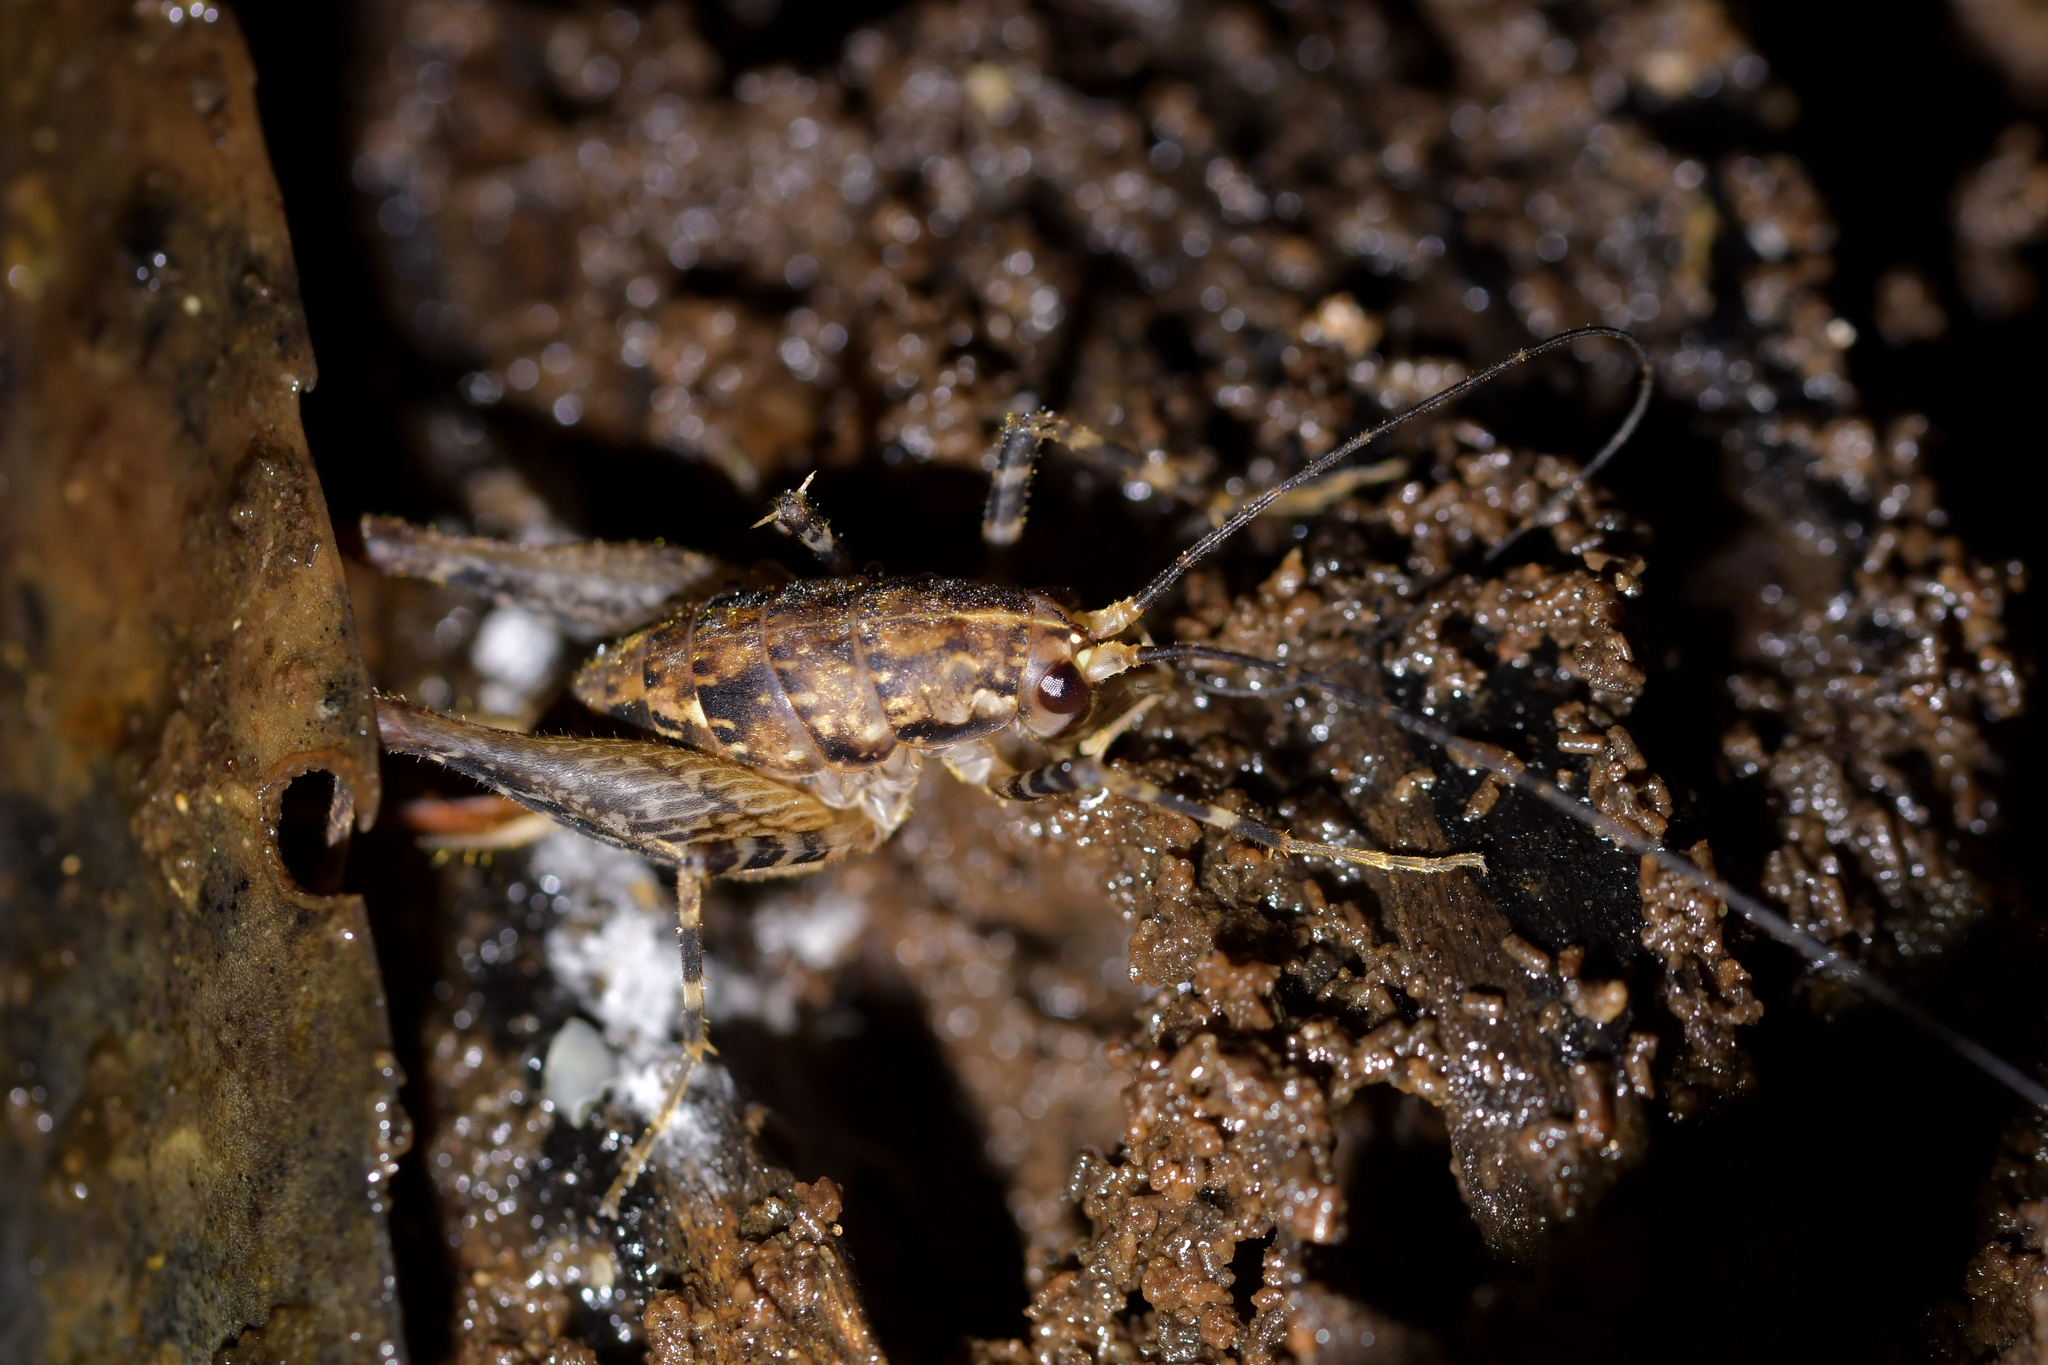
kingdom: Animalia
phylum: Arthropoda
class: Insecta
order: Orthoptera
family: Rhaphidophoridae
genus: Pleioplectron
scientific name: Pleioplectron hudsoni
